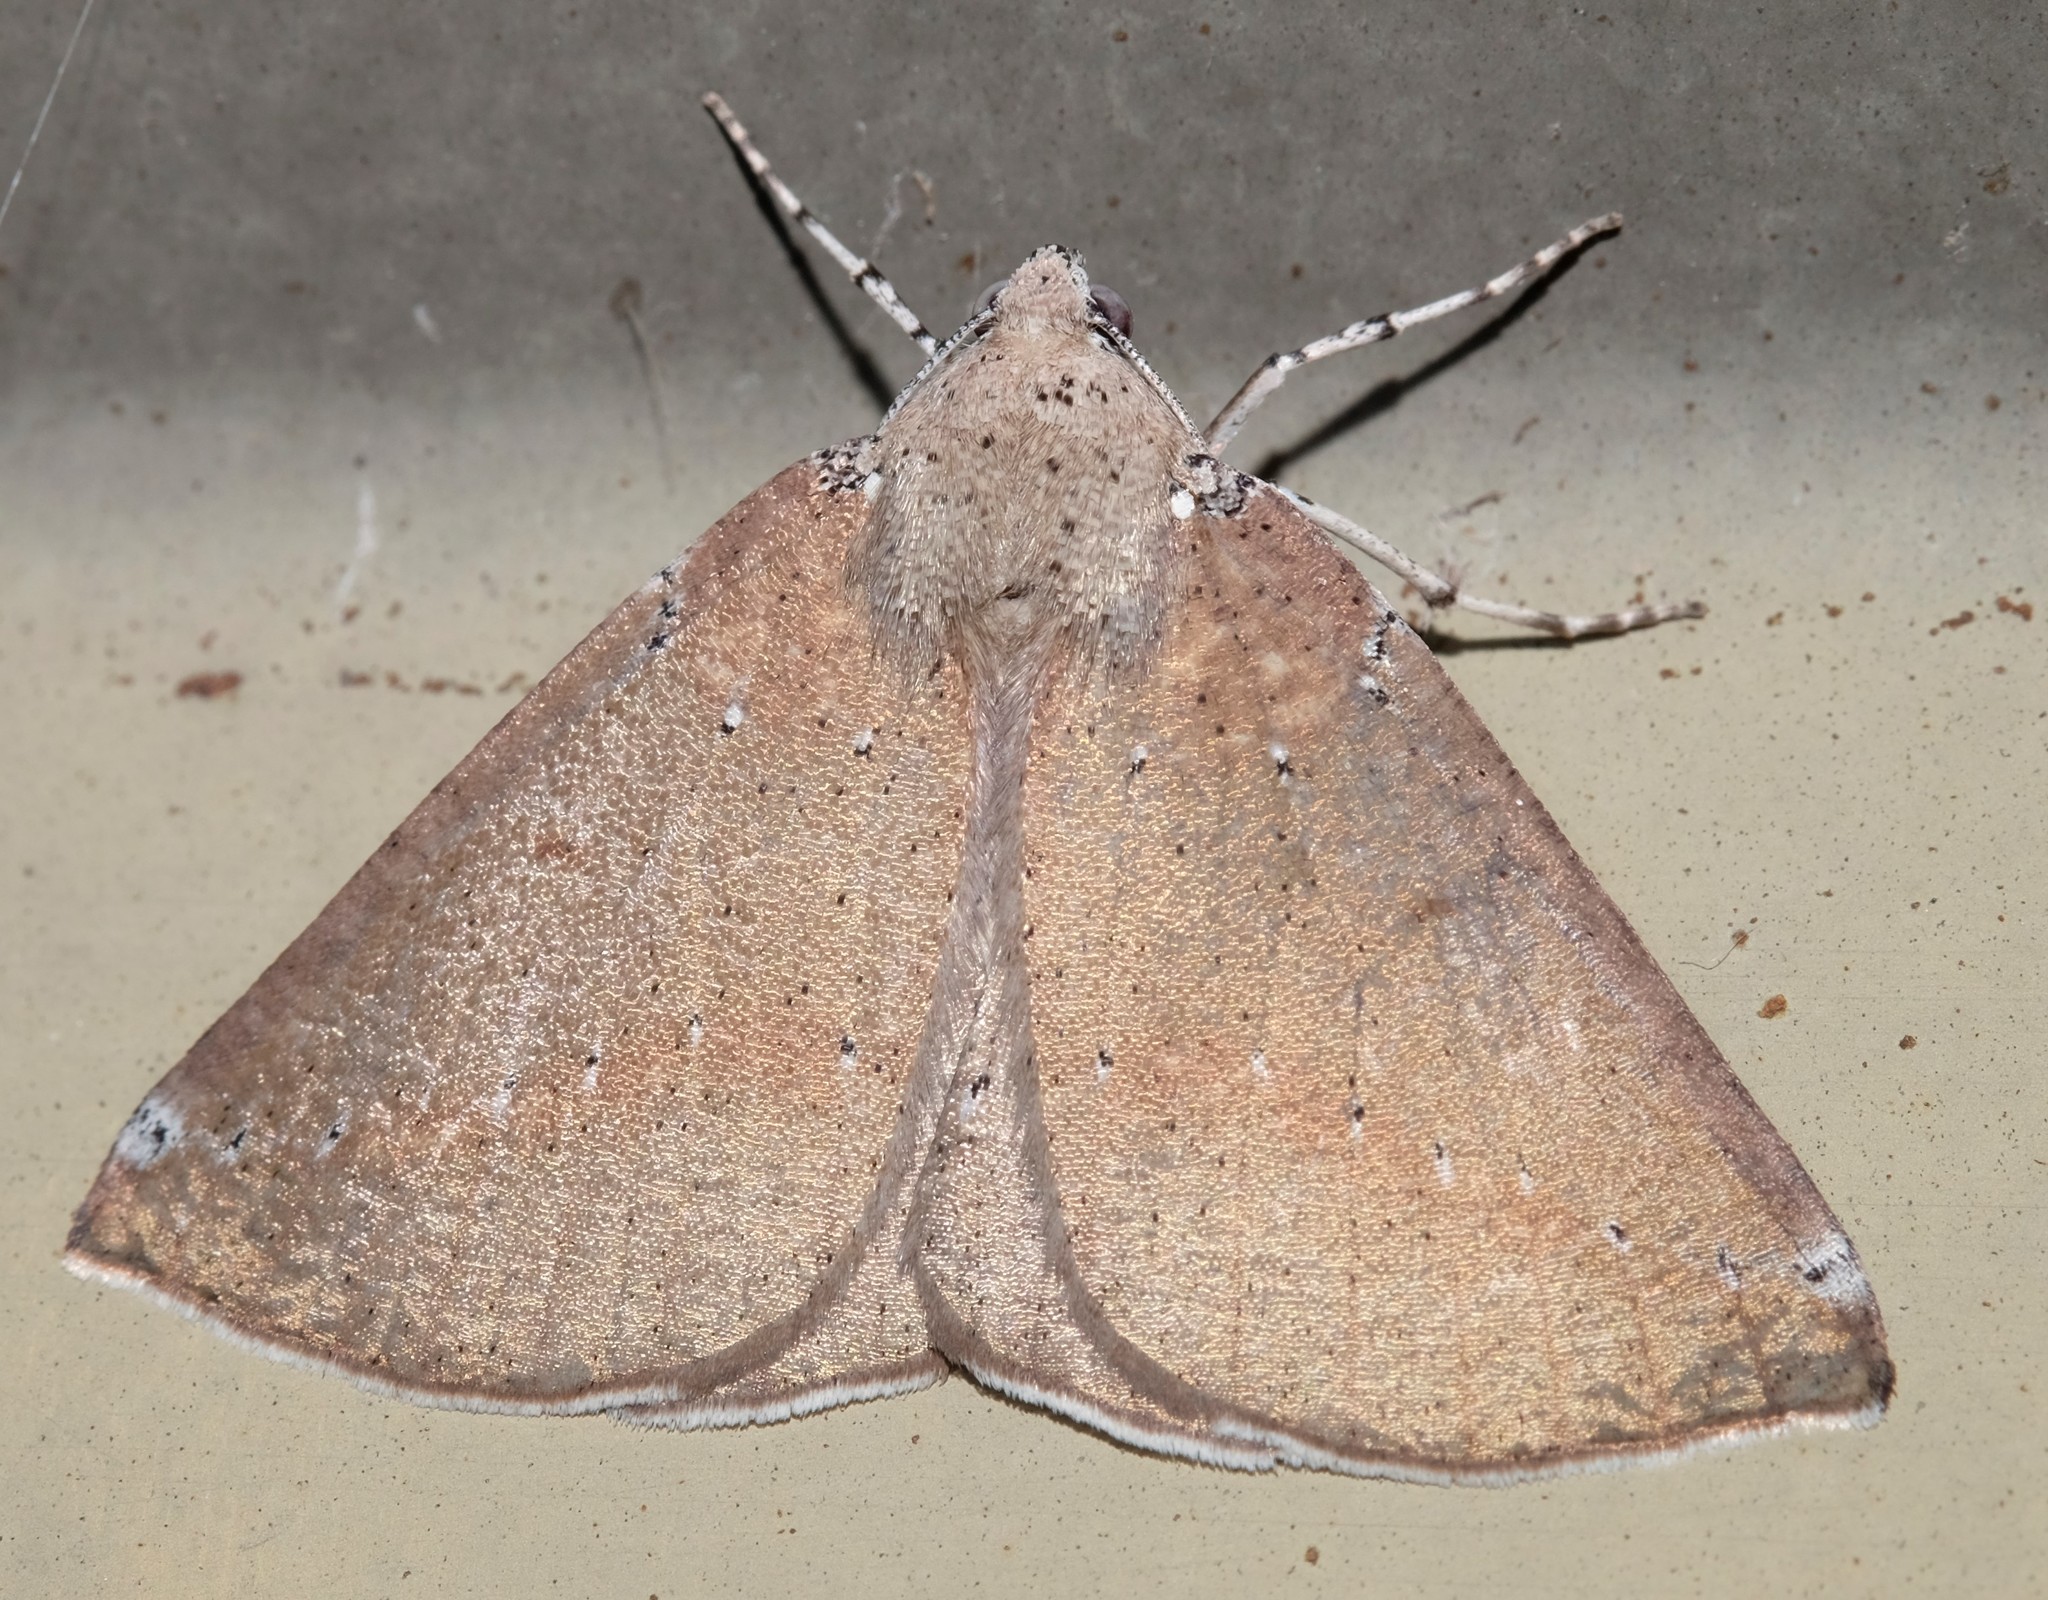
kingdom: Animalia
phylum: Arthropoda
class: Insecta
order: Lepidoptera
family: Geometridae
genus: Cassythaphaga
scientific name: Cassythaphaga macarta
